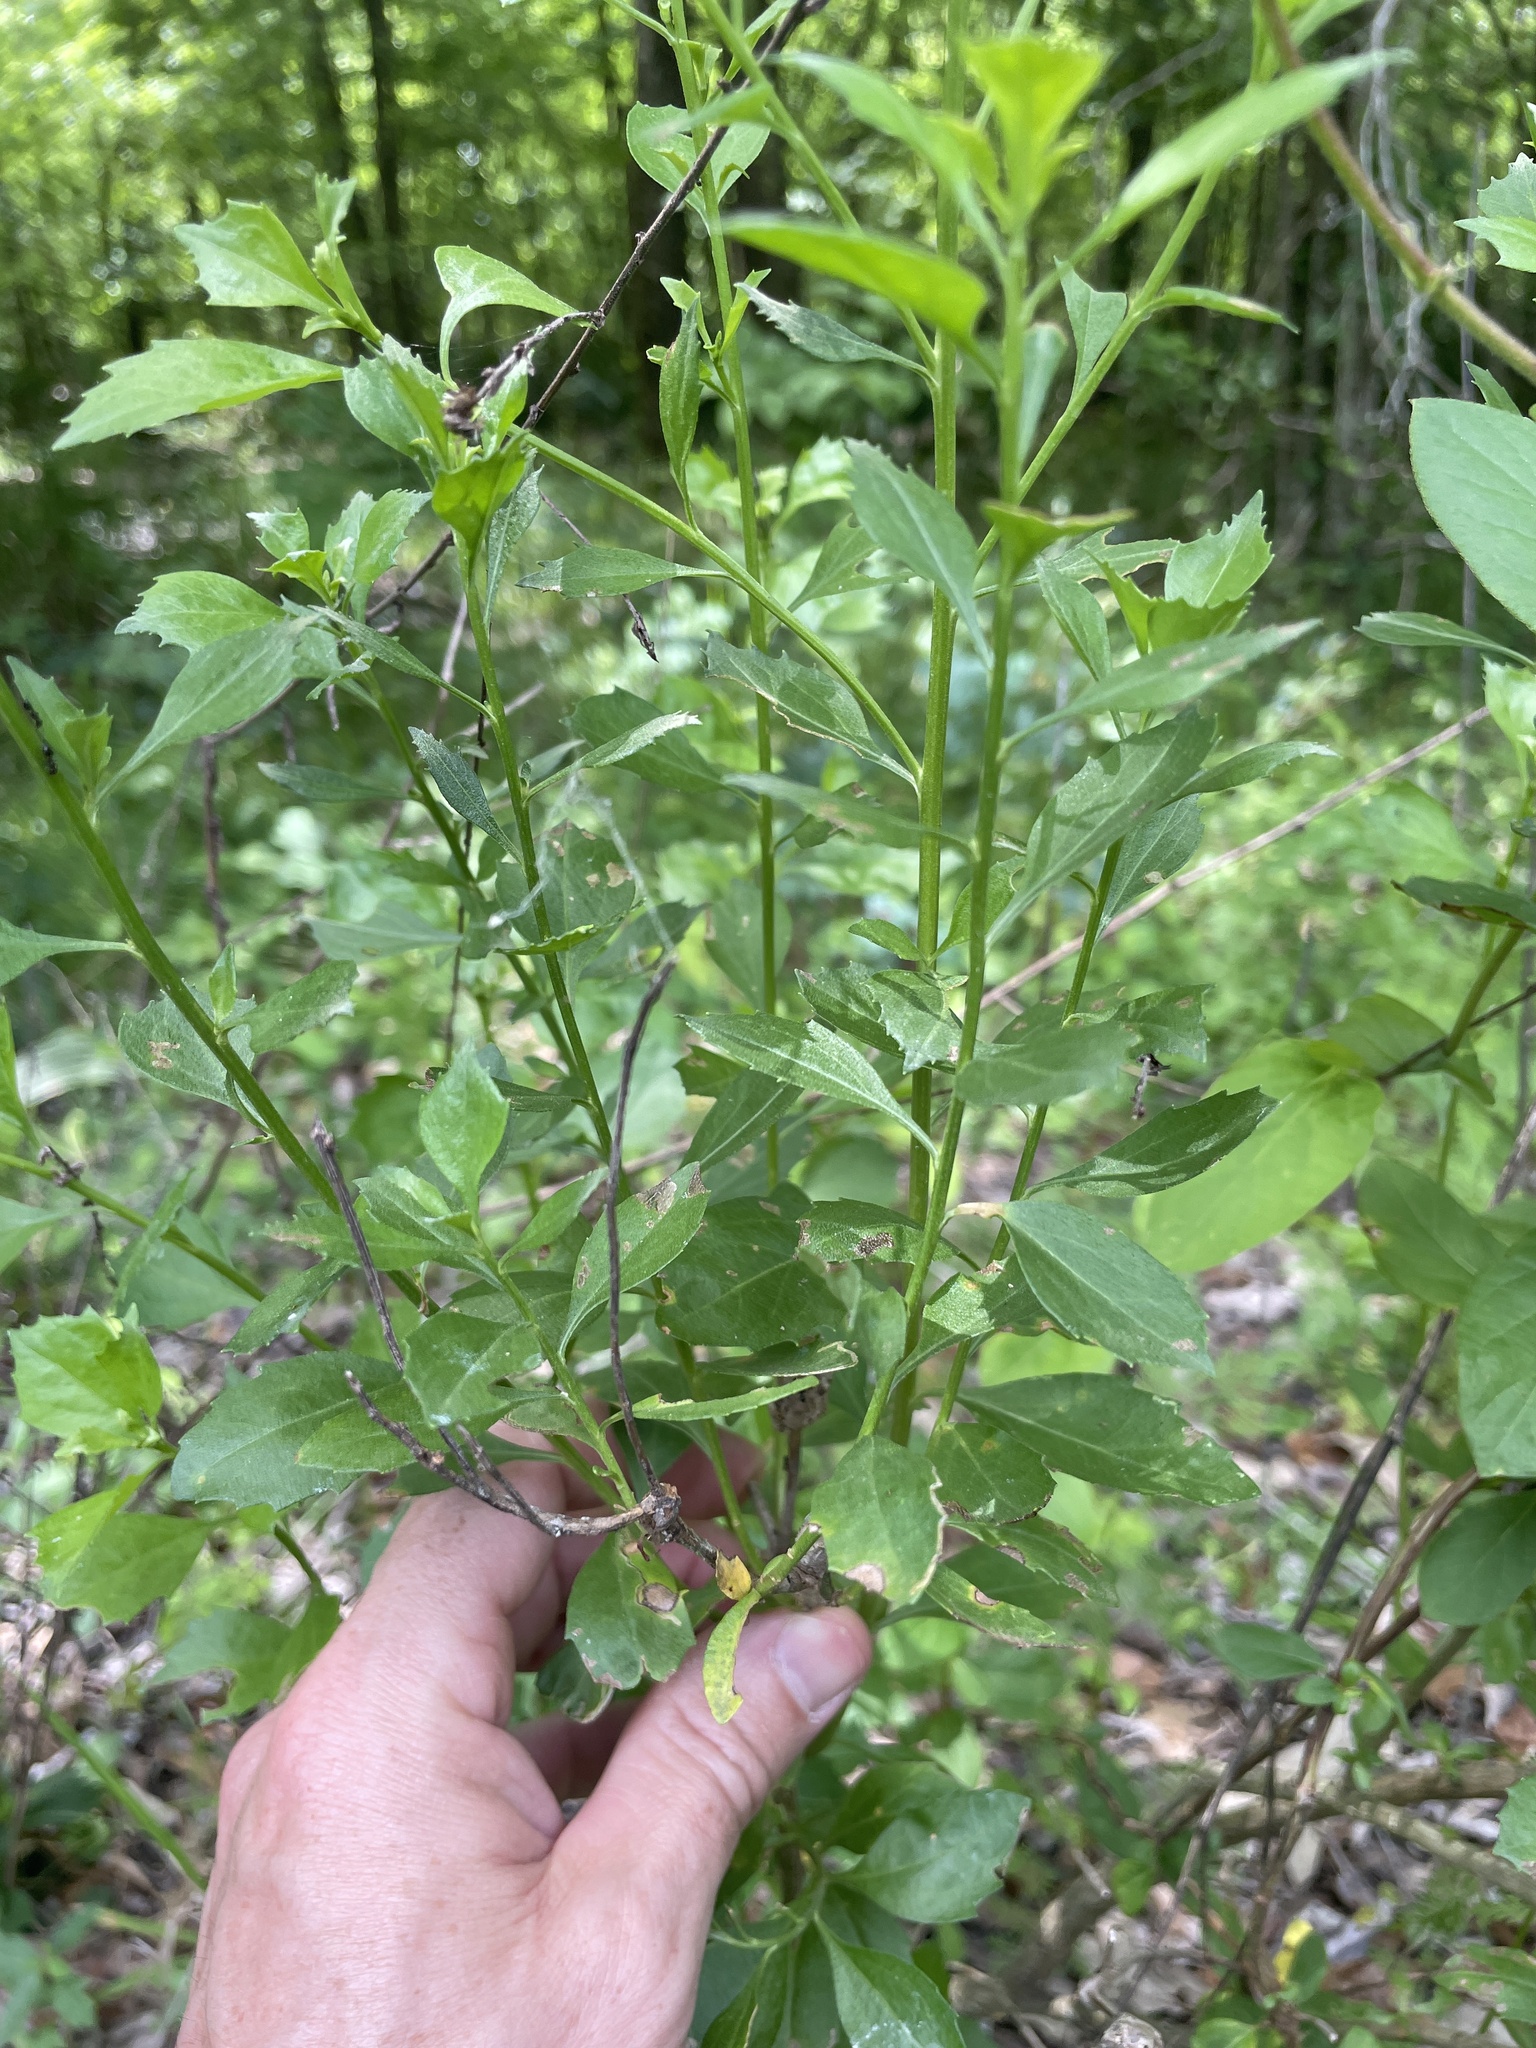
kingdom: Plantae
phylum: Tracheophyta
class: Magnoliopsida
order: Asterales
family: Asteraceae
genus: Baccharis
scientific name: Baccharis halimifolia
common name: Eastern baccharis
